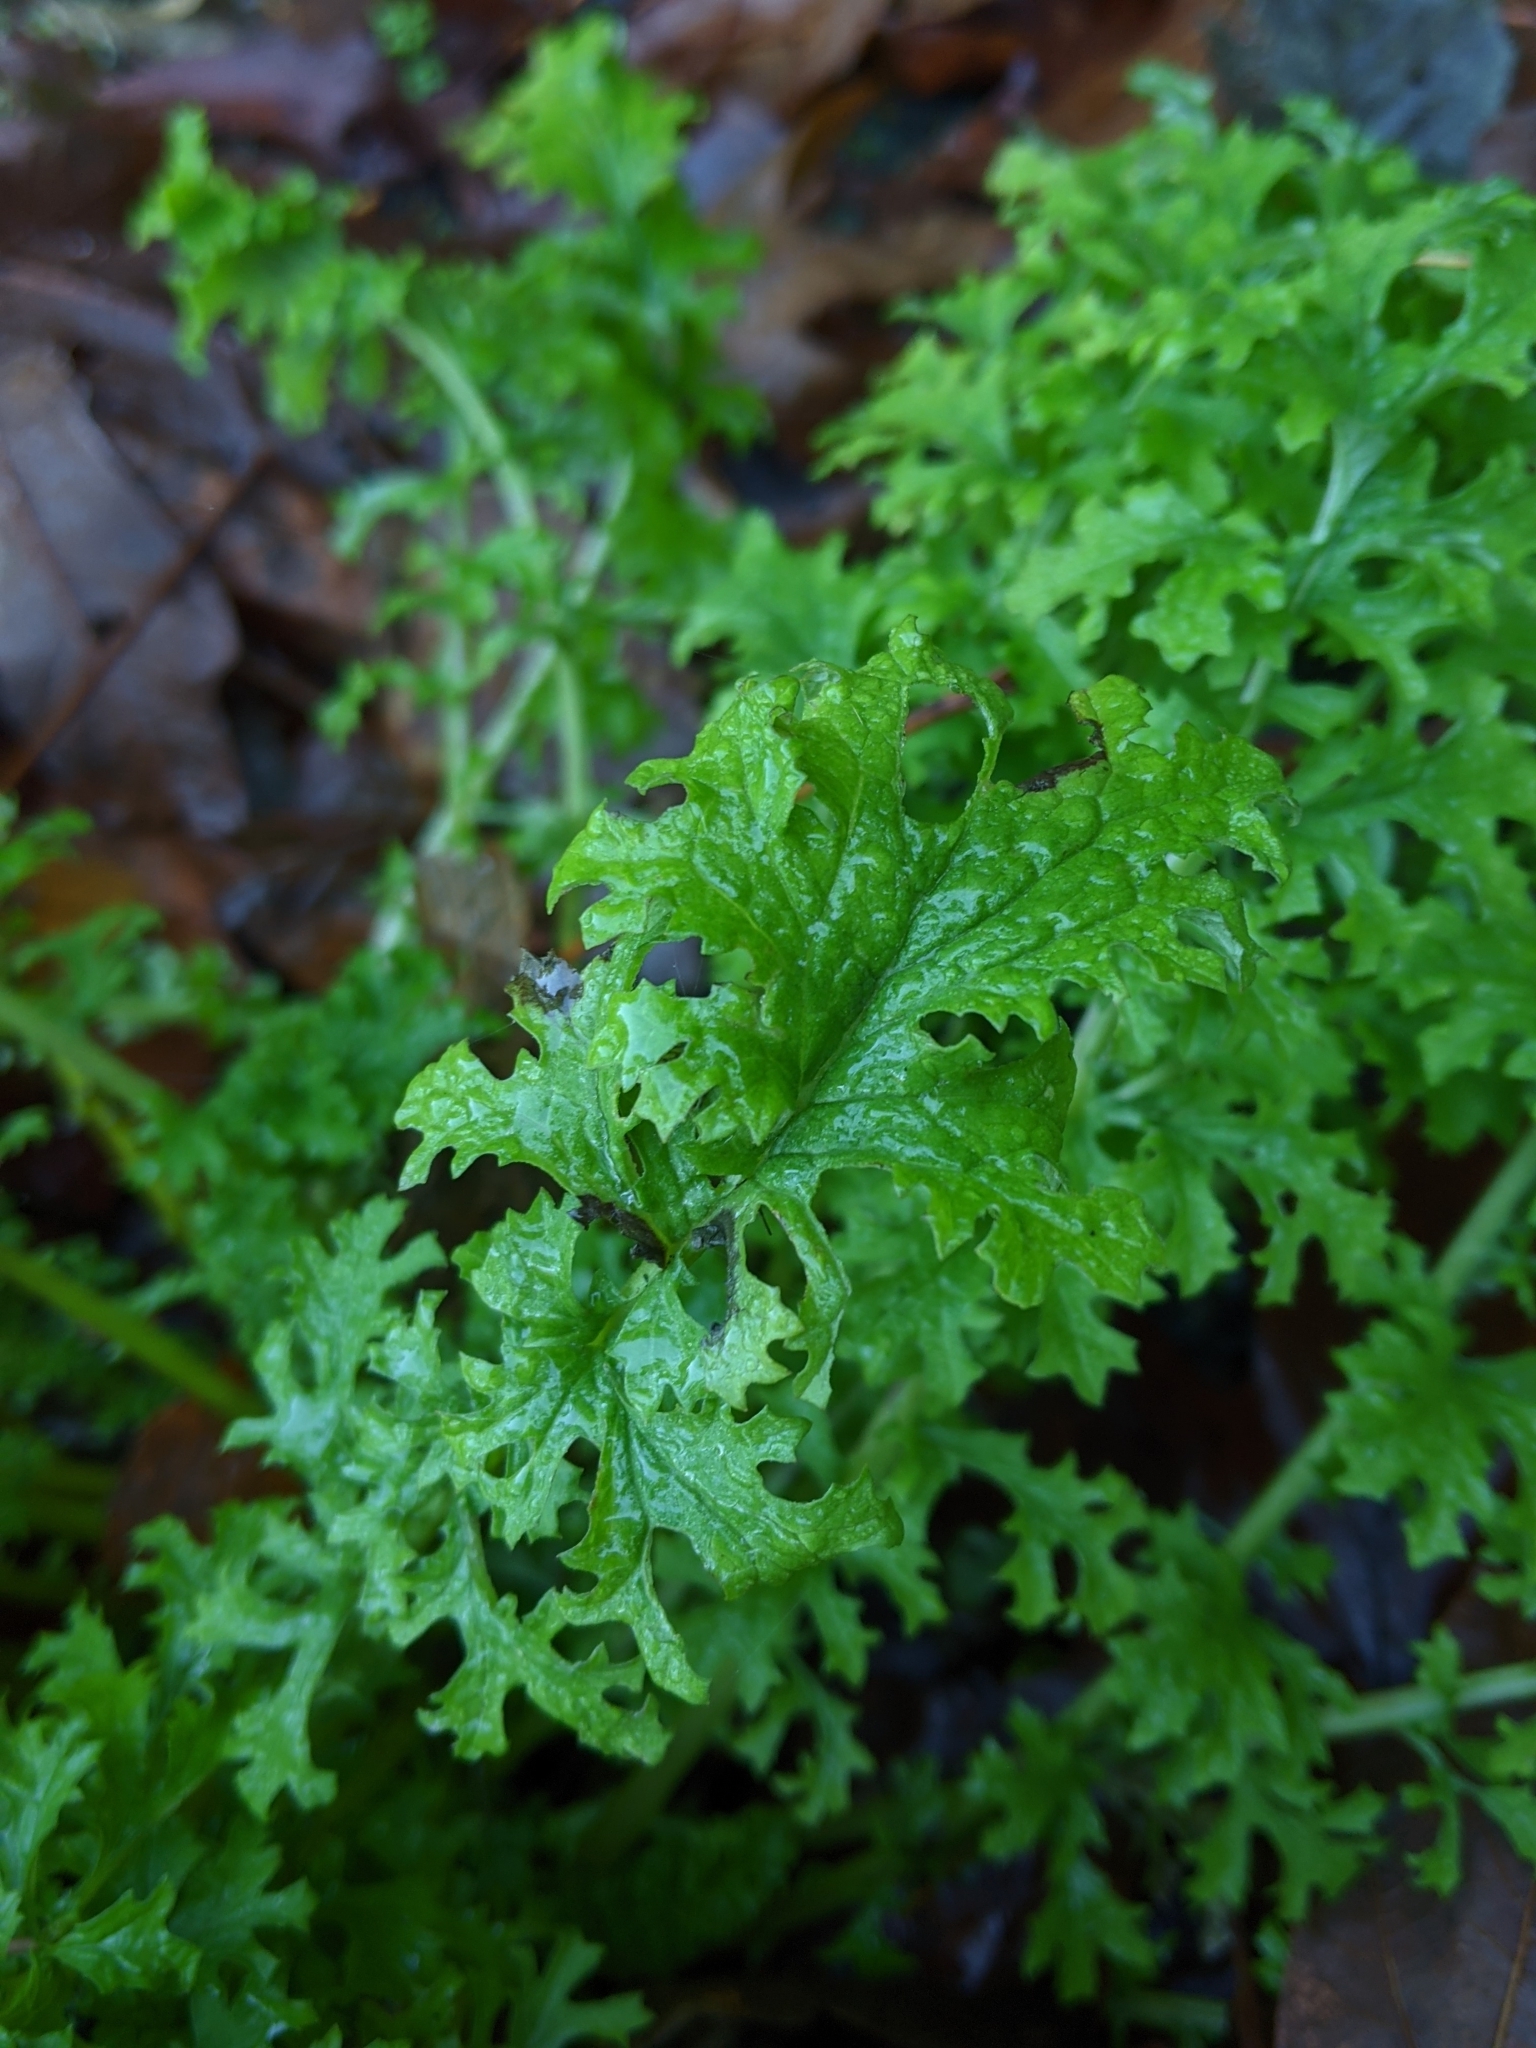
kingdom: Plantae
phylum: Tracheophyta
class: Magnoliopsida
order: Asterales
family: Asteraceae
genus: Jacobaea
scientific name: Jacobaea vulgaris
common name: Stinking willie
